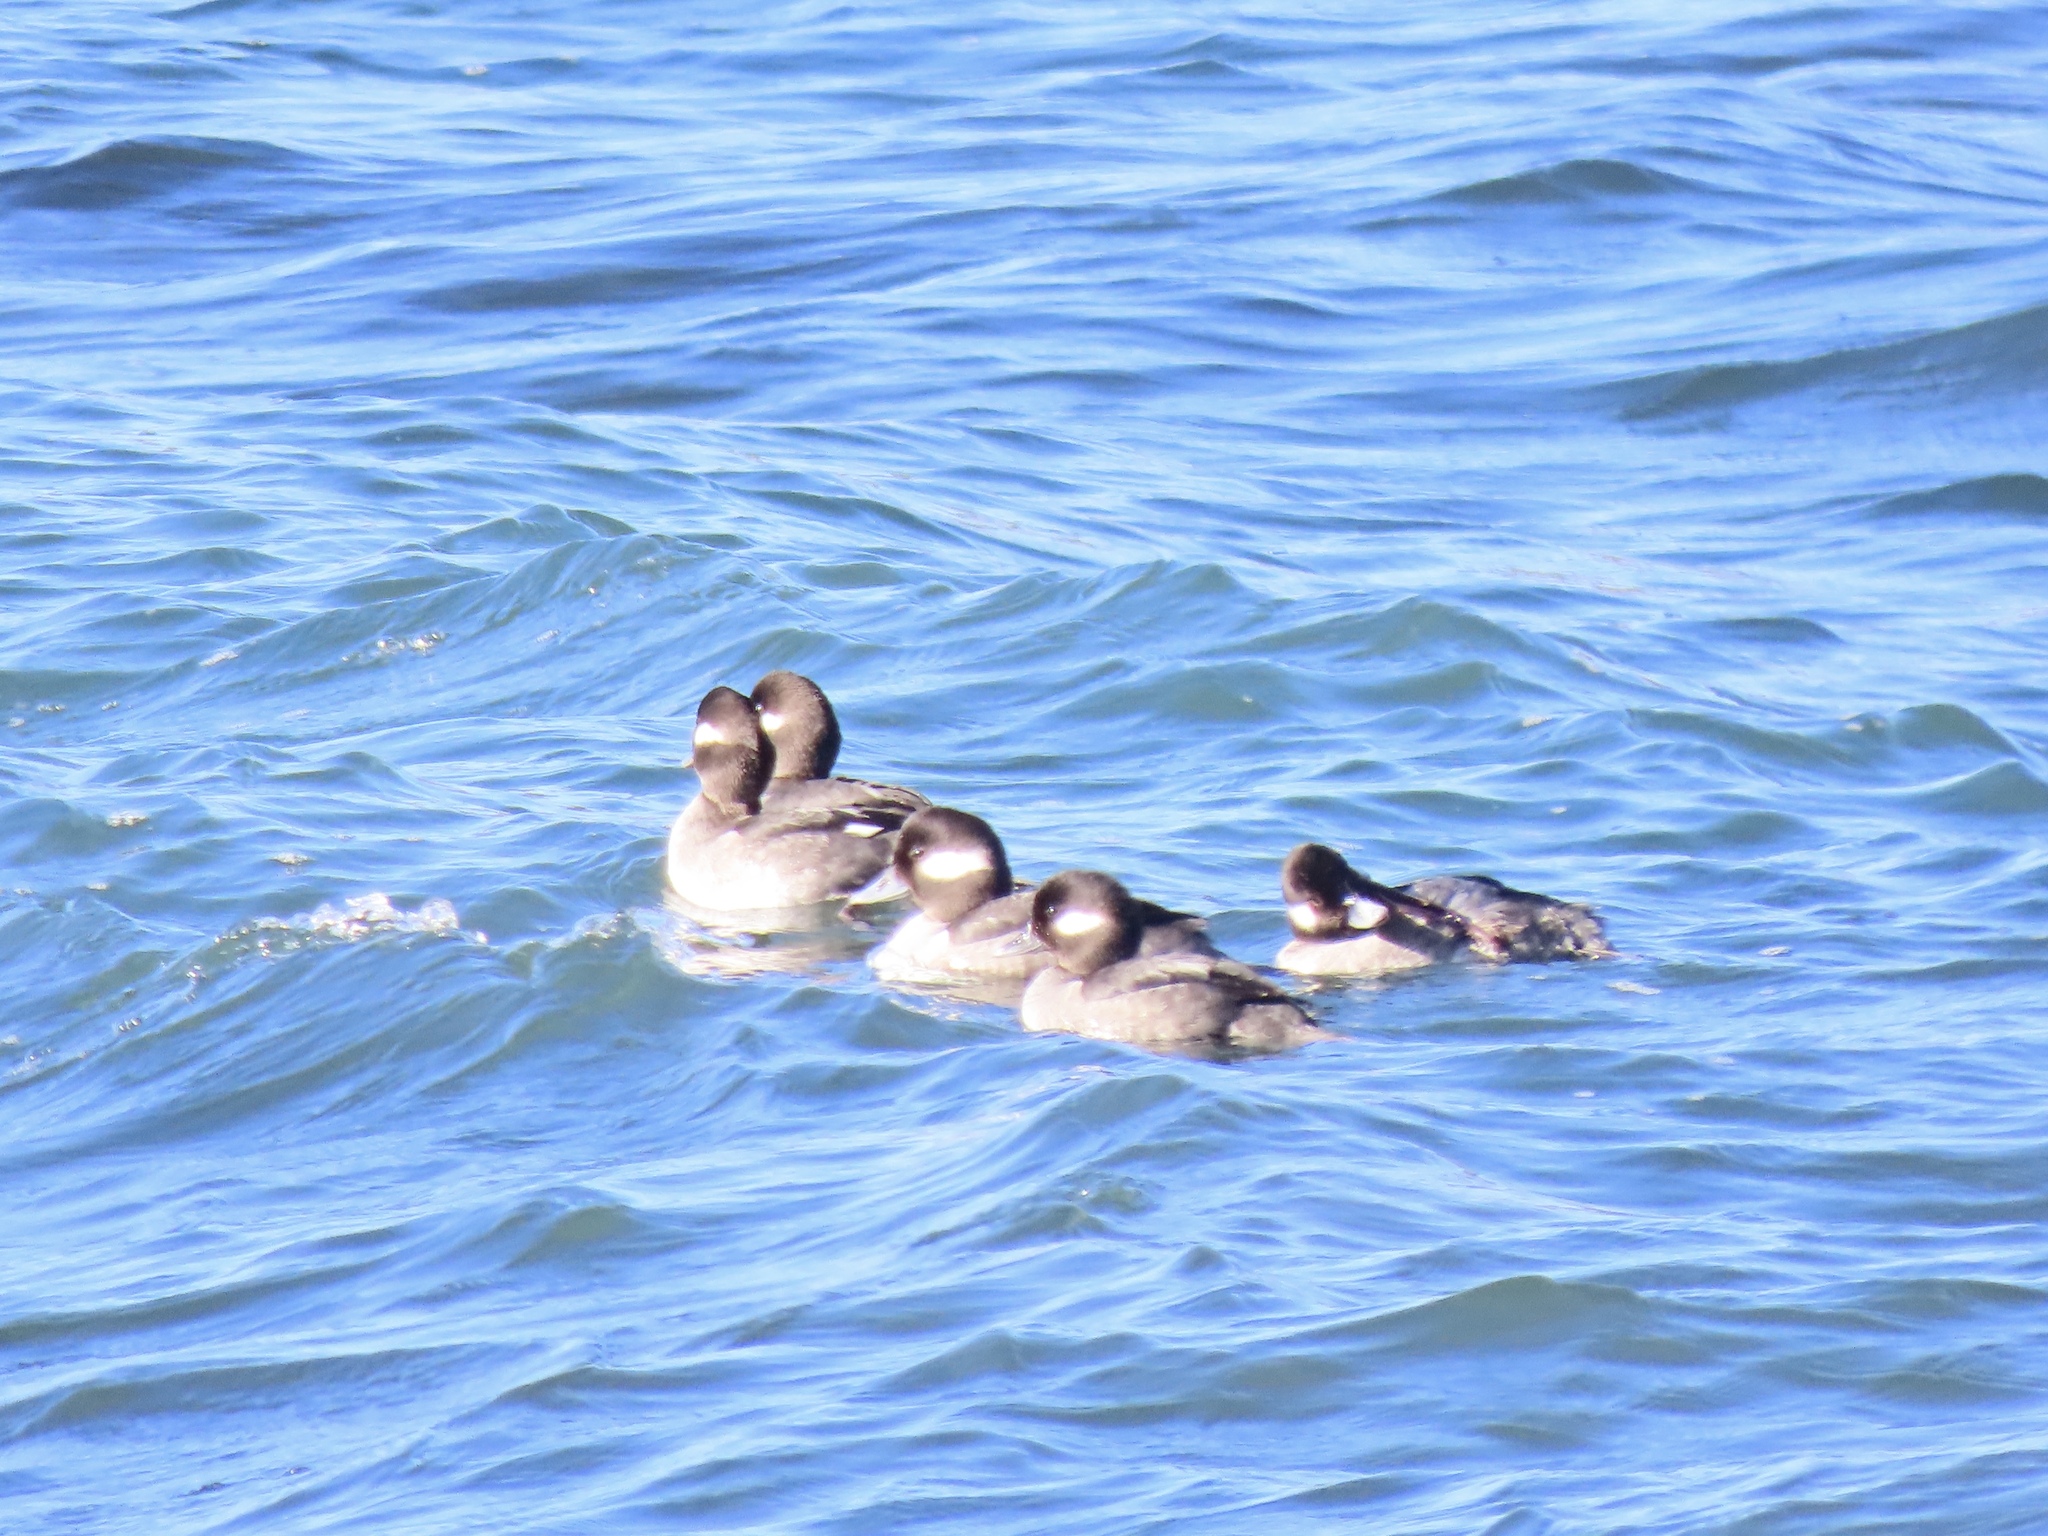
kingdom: Animalia
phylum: Chordata
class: Aves
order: Anseriformes
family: Anatidae
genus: Bucephala
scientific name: Bucephala albeola
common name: Bufflehead
